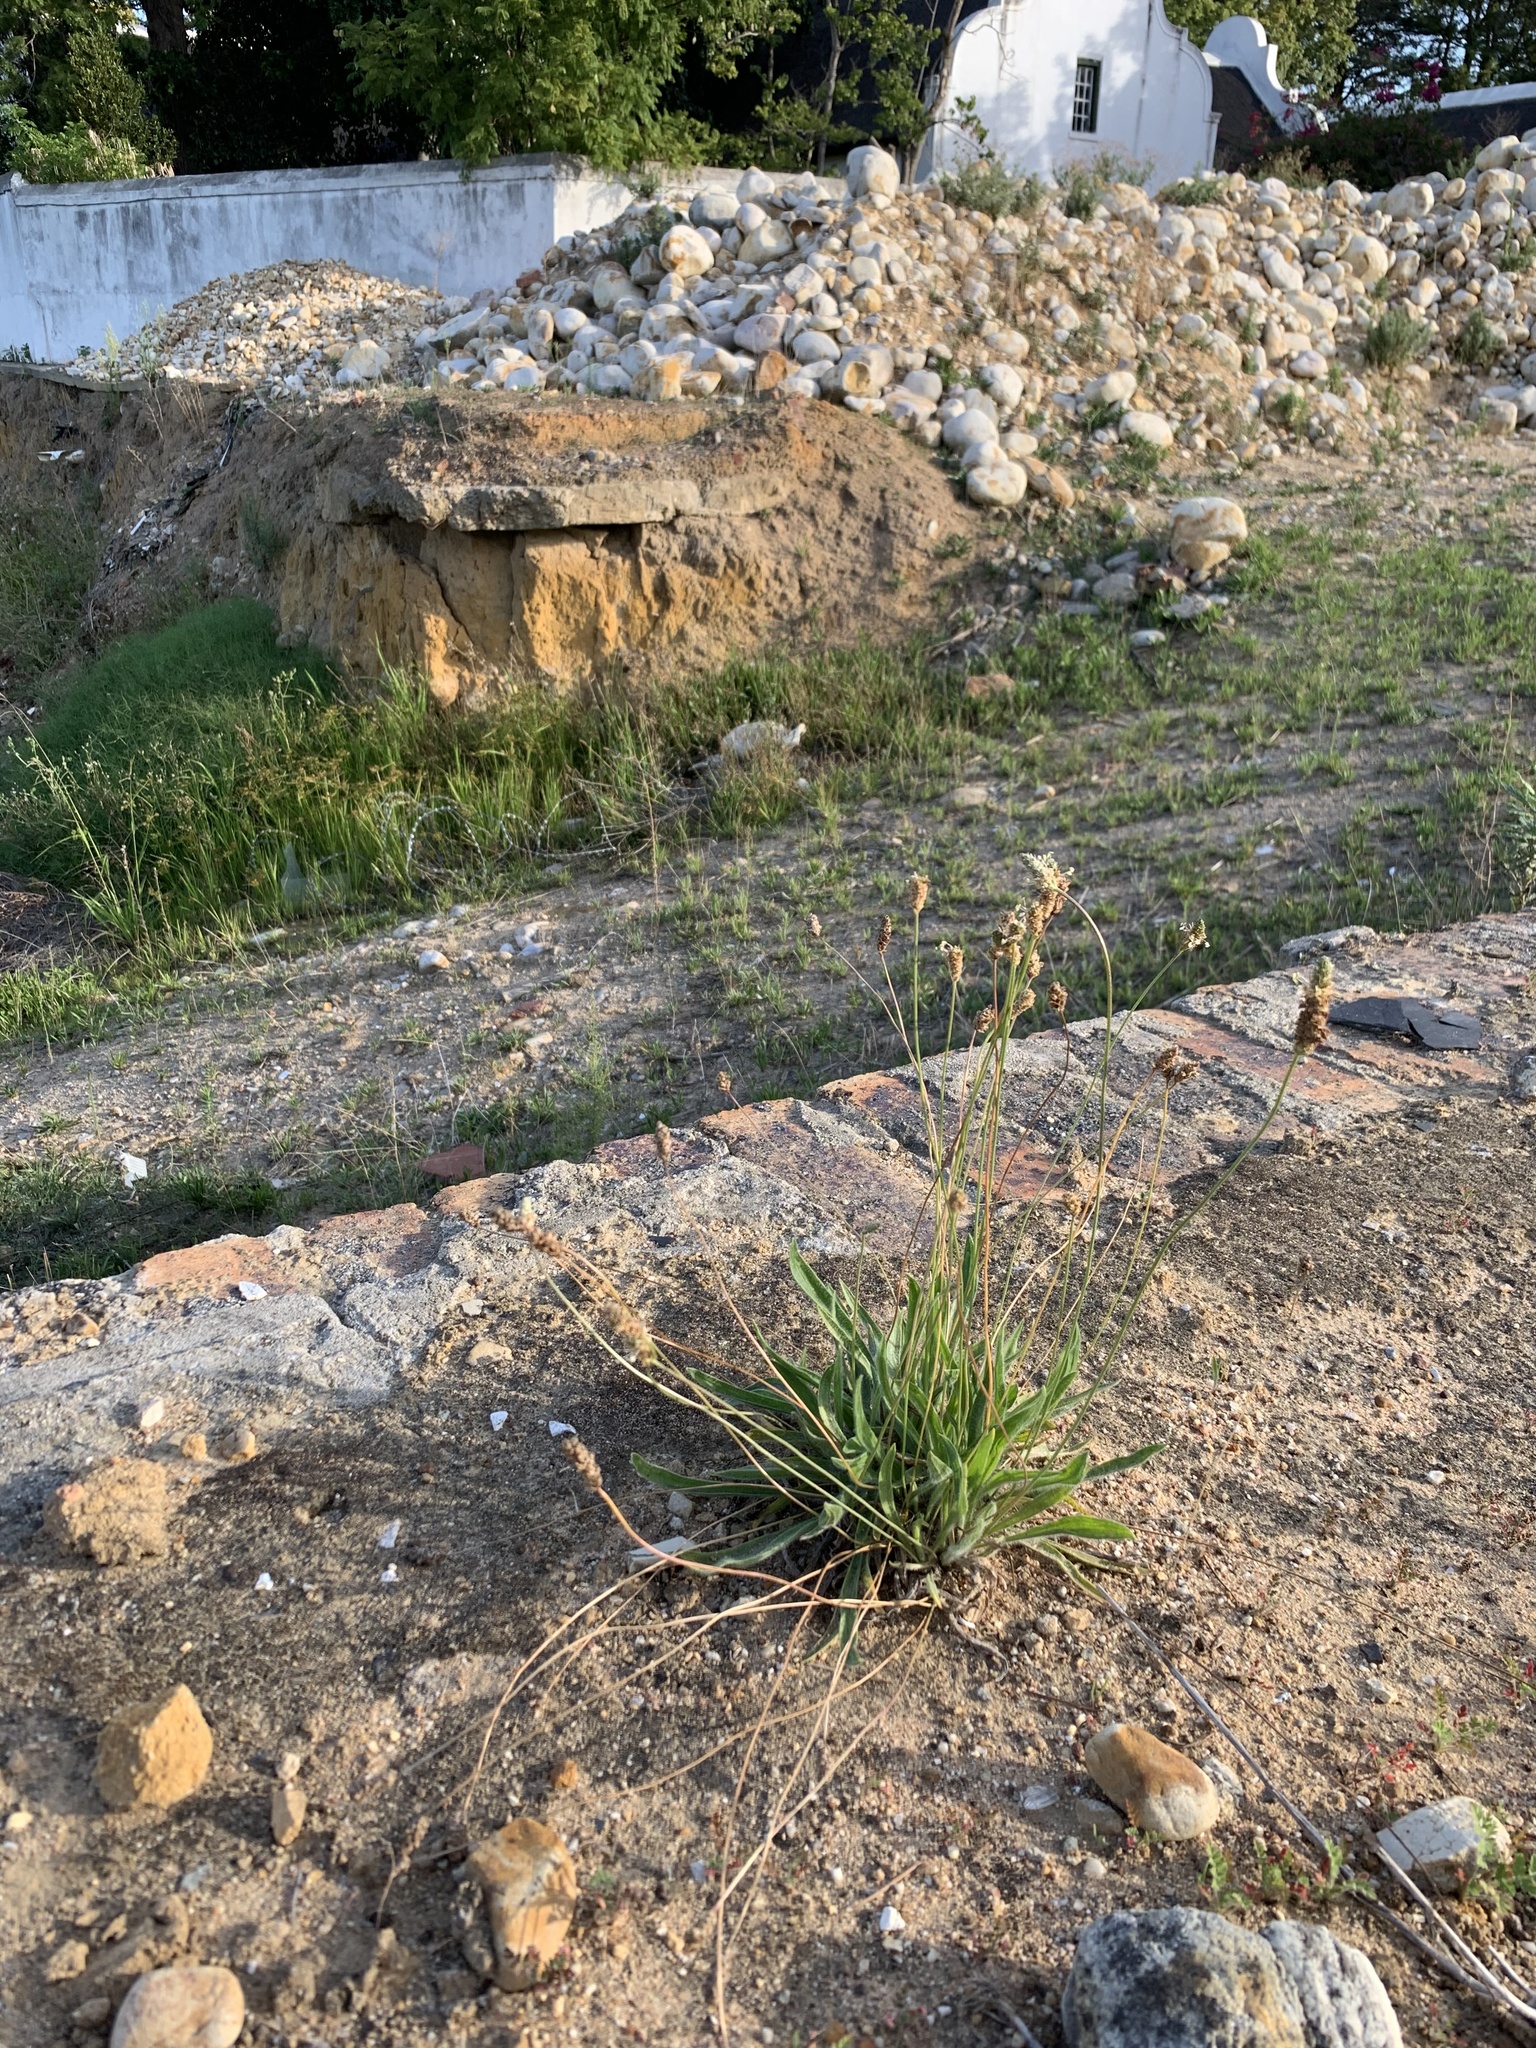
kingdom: Plantae
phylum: Tracheophyta
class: Magnoliopsida
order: Lamiales
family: Plantaginaceae
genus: Plantago
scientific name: Plantago lanceolata
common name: Ribwort plantain
